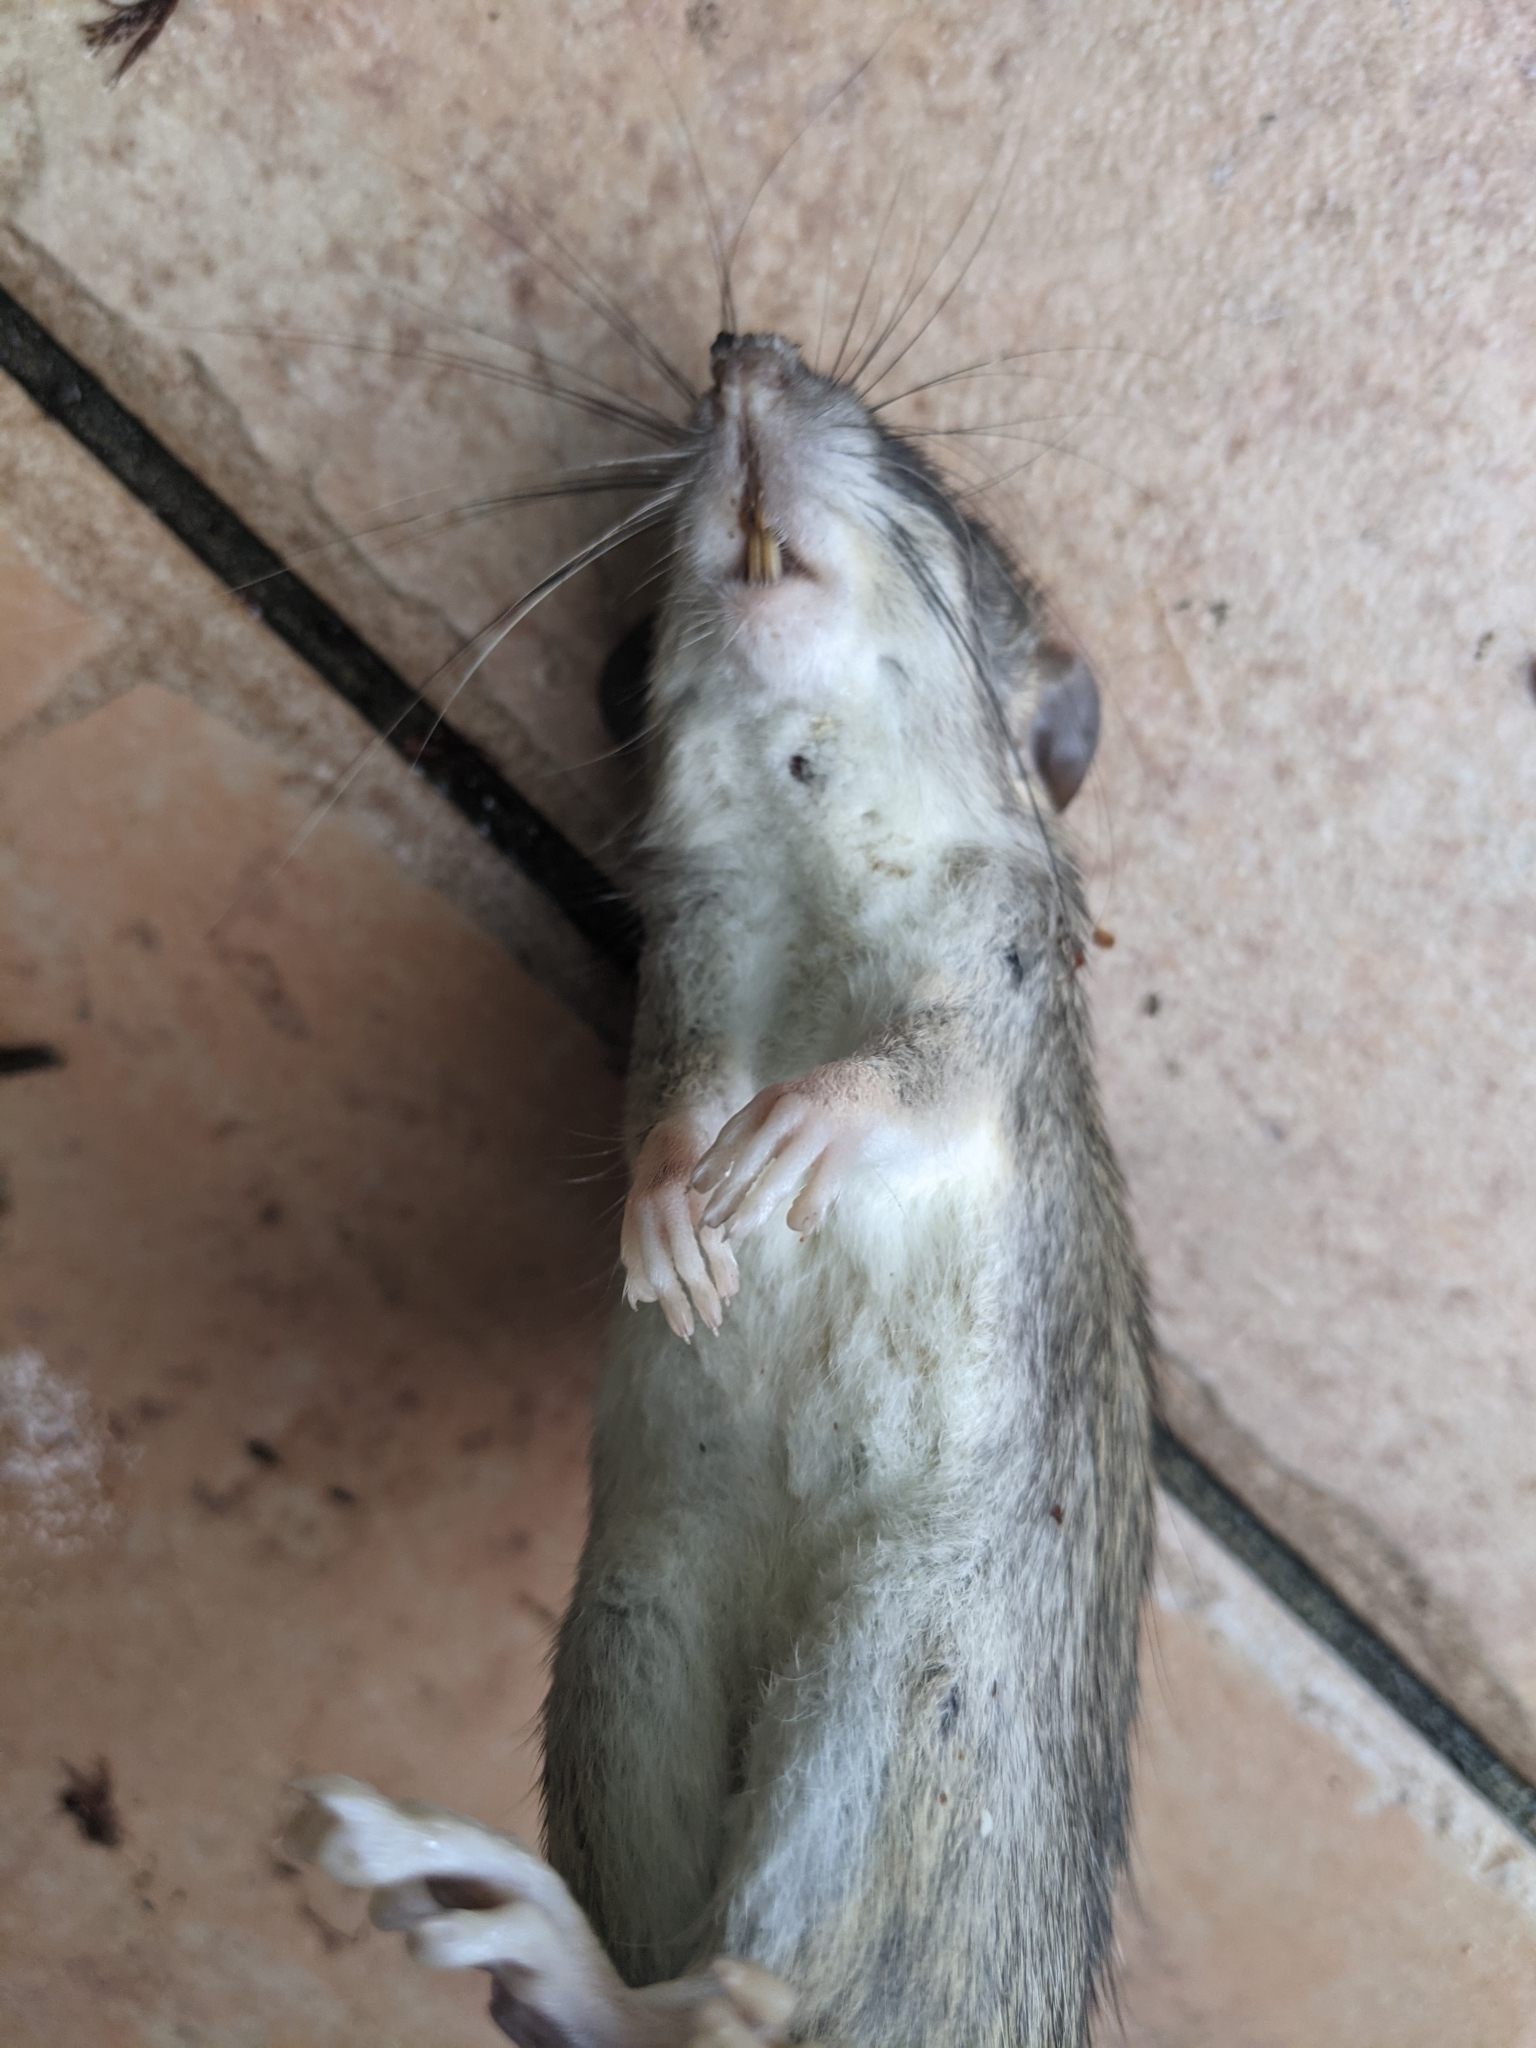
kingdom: Animalia
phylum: Chordata
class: Mammalia
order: Rodentia
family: Muridae
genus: Mus
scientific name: Mus musculus
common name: House mouse
